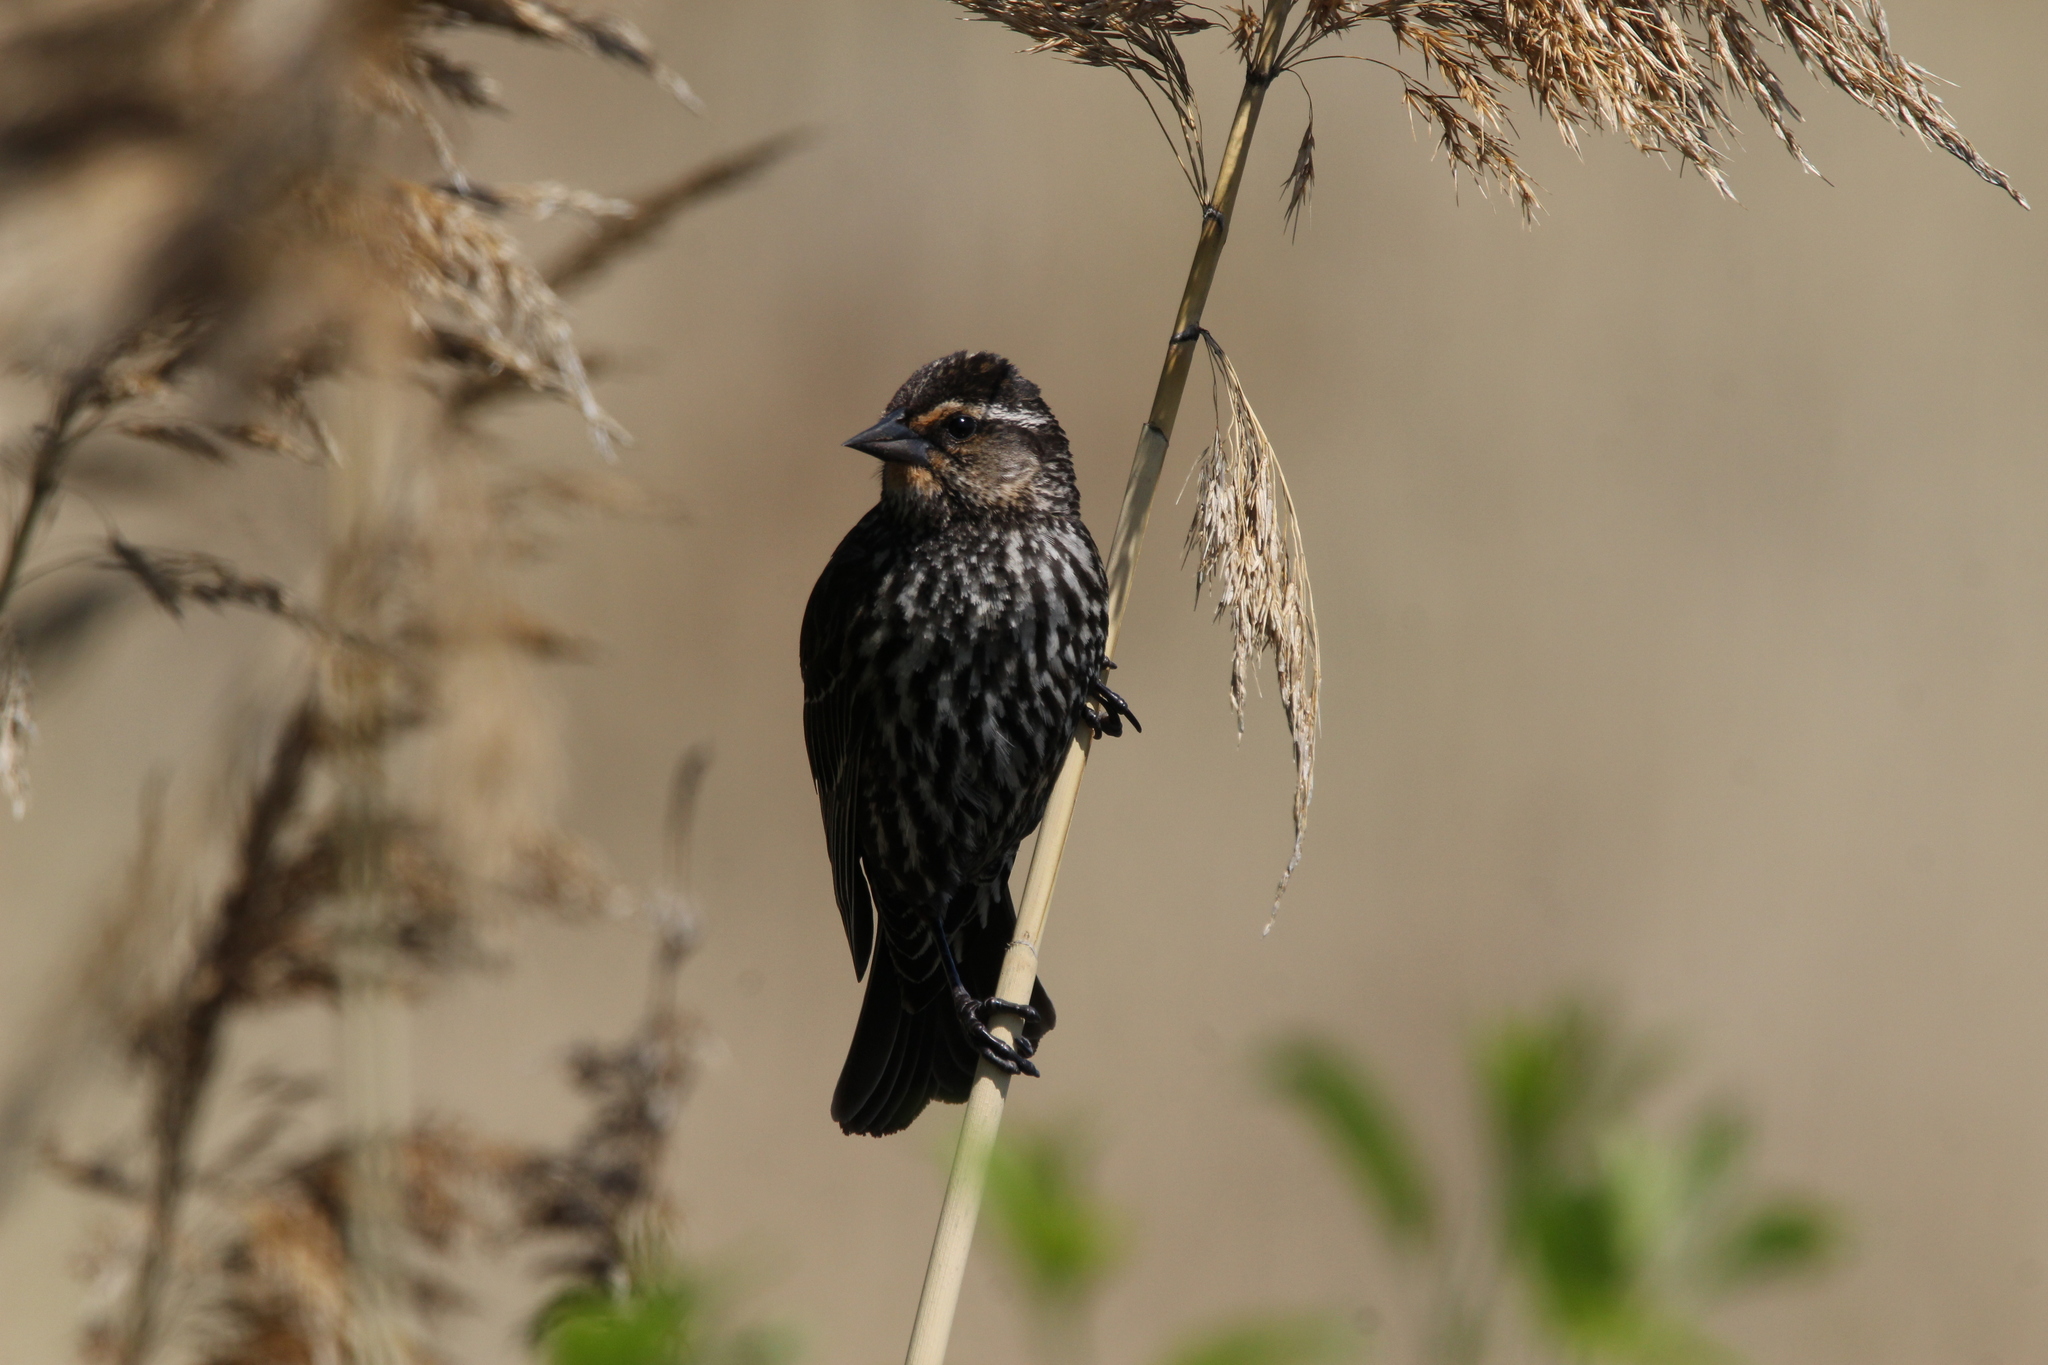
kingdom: Animalia
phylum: Chordata
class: Aves
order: Passeriformes
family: Icteridae
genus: Agelaius
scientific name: Agelaius phoeniceus
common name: Red-winged blackbird
